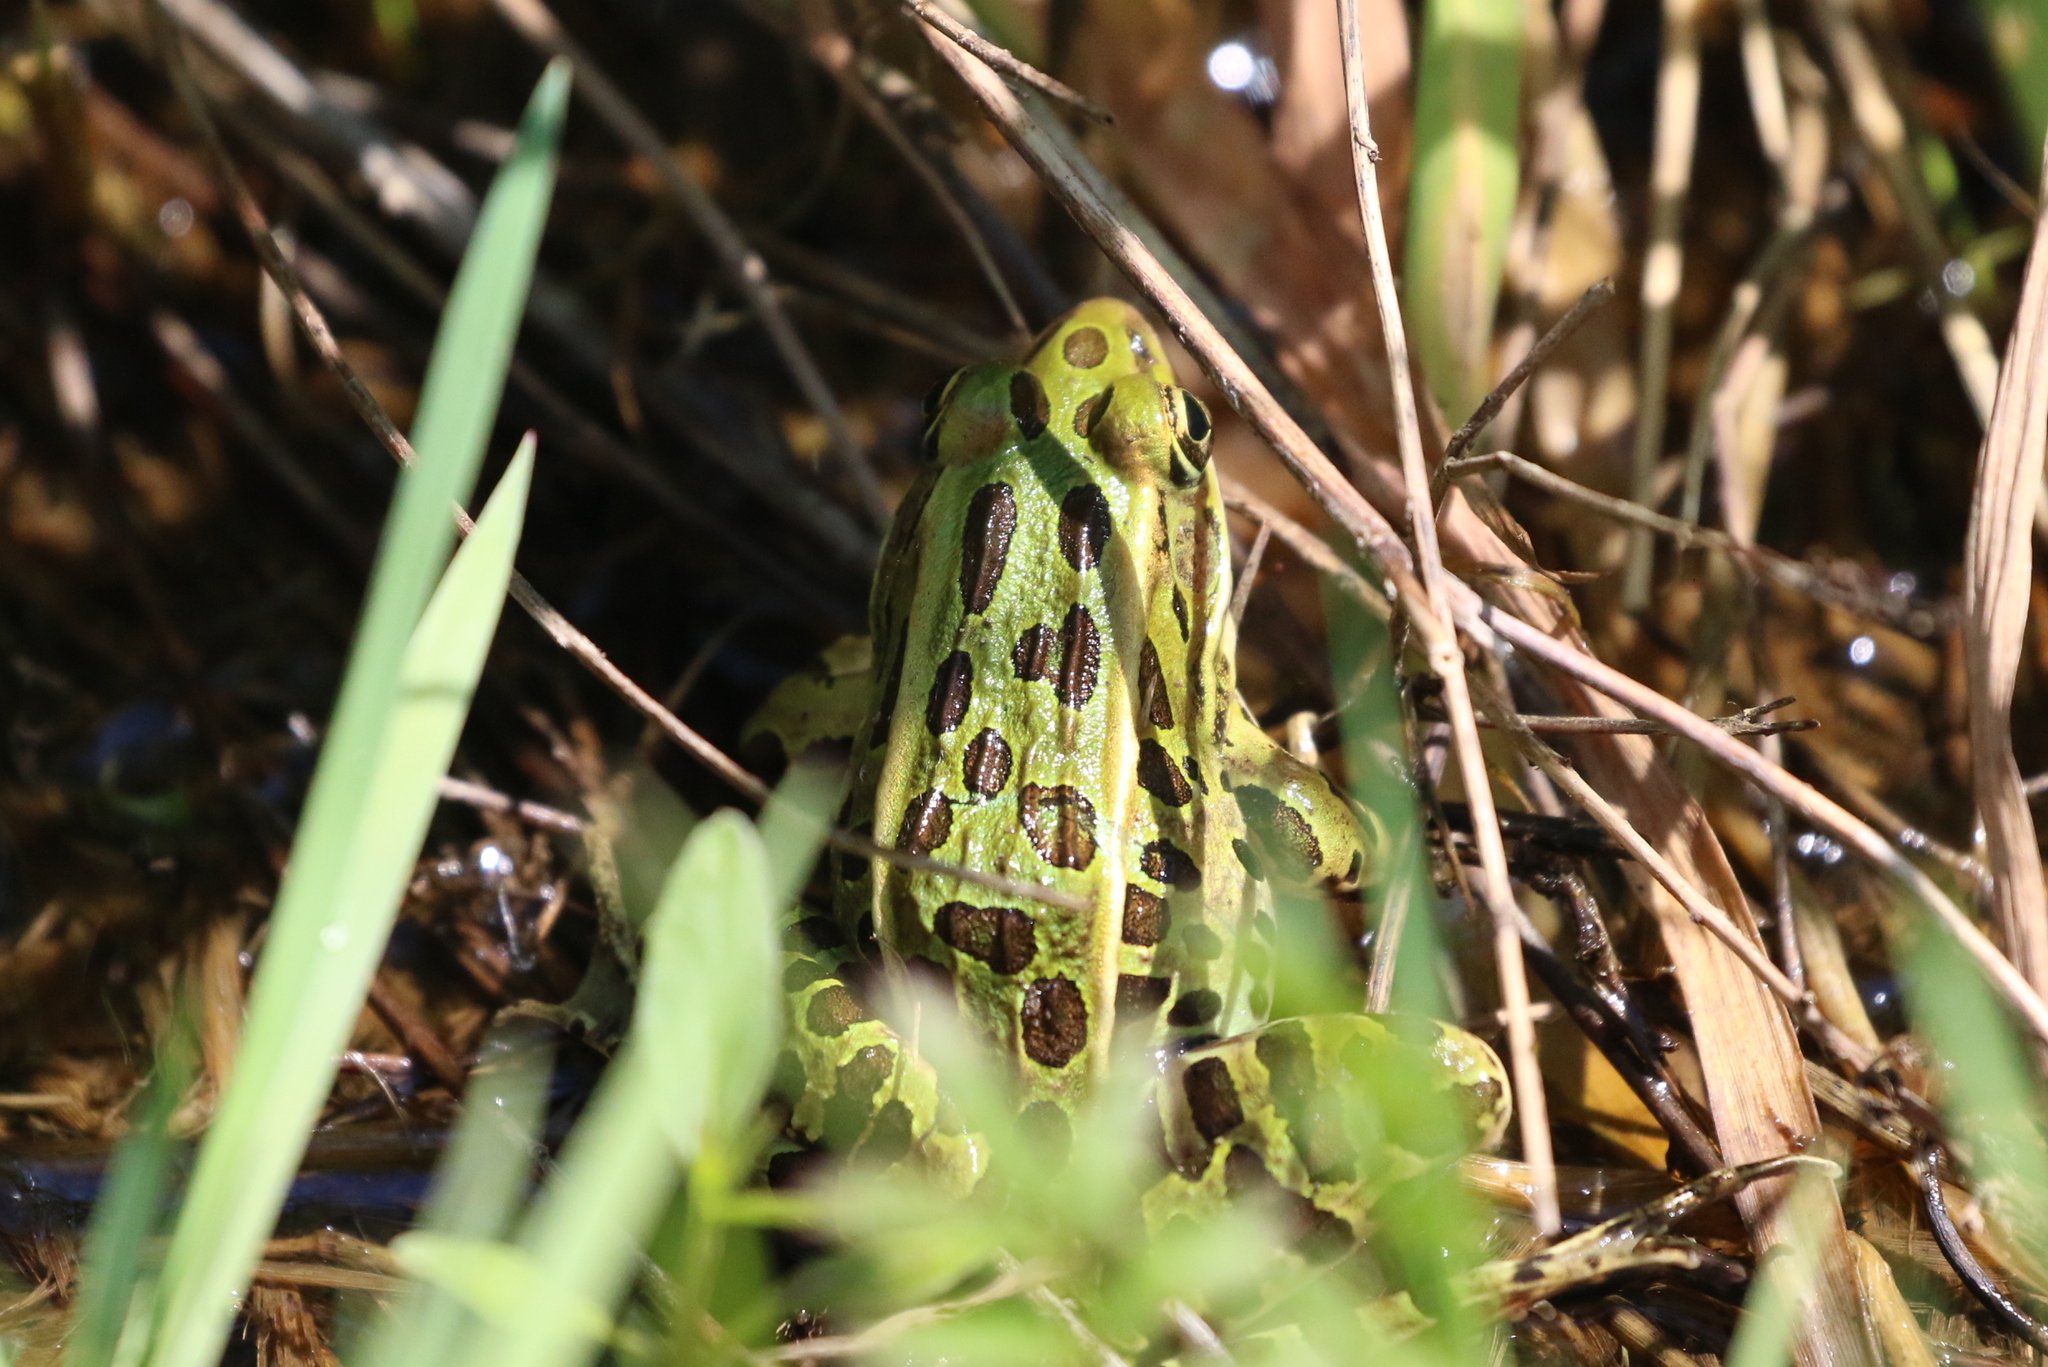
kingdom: Animalia
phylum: Chordata
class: Amphibia
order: Anura
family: Ranidae
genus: Lithobates
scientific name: Lithobates pipiens
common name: Northern leopard frog
